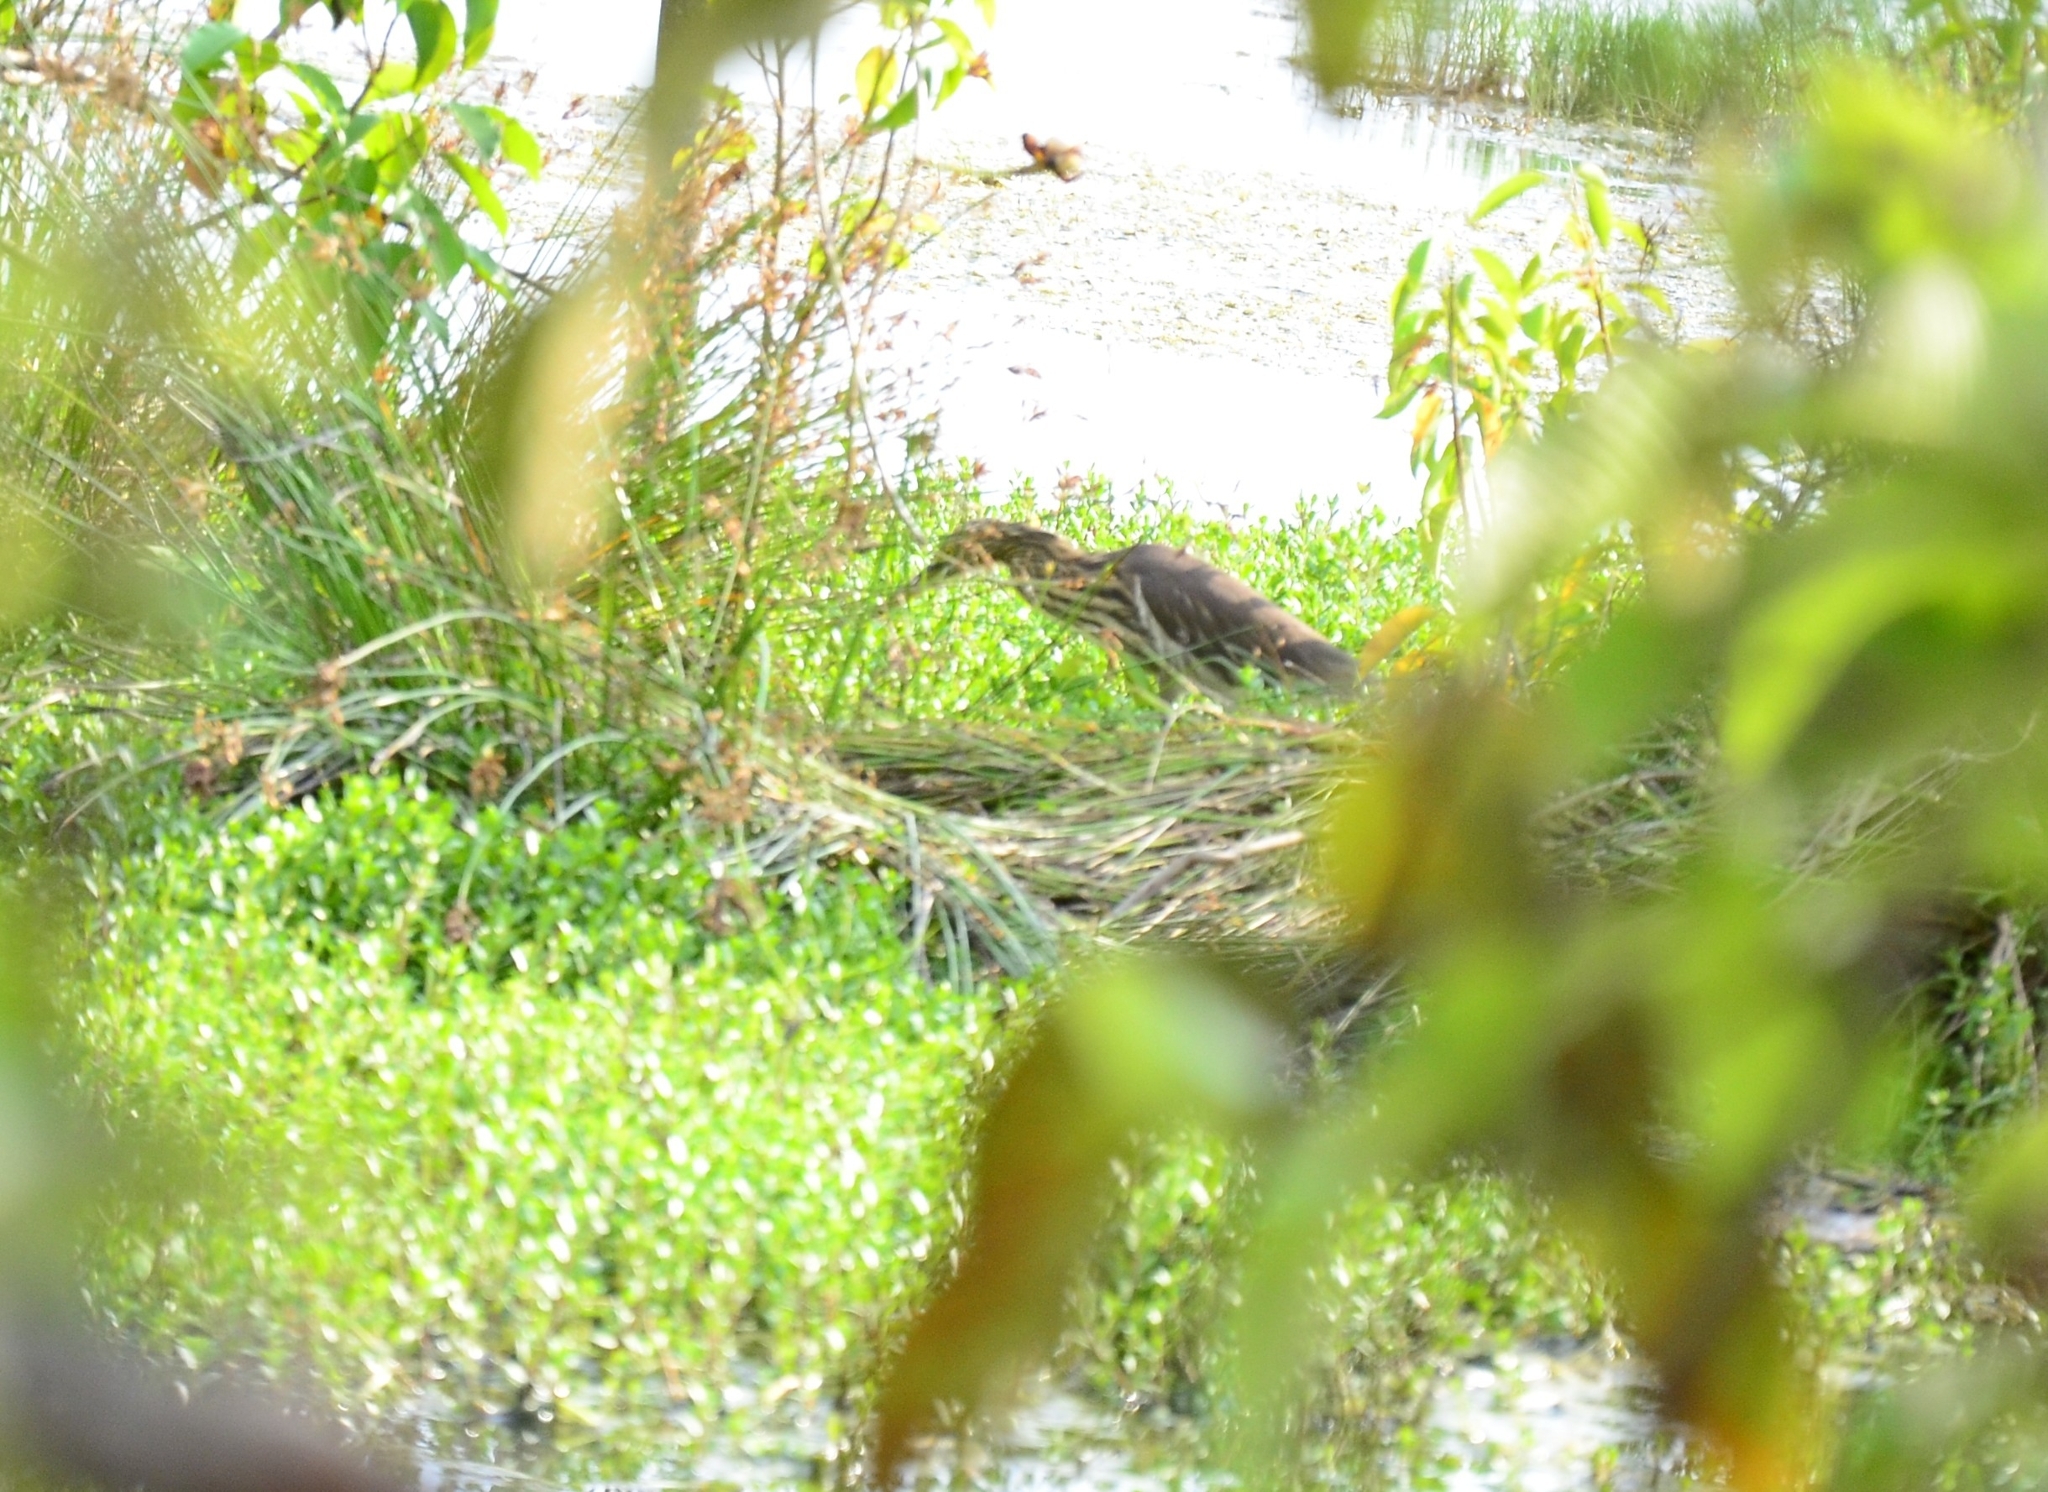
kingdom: Animalia
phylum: Chordata
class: Aves
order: Pelecaniformes
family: Ardeidae
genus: Ardeola
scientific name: Ardeola grayii
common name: Indian pond heron
